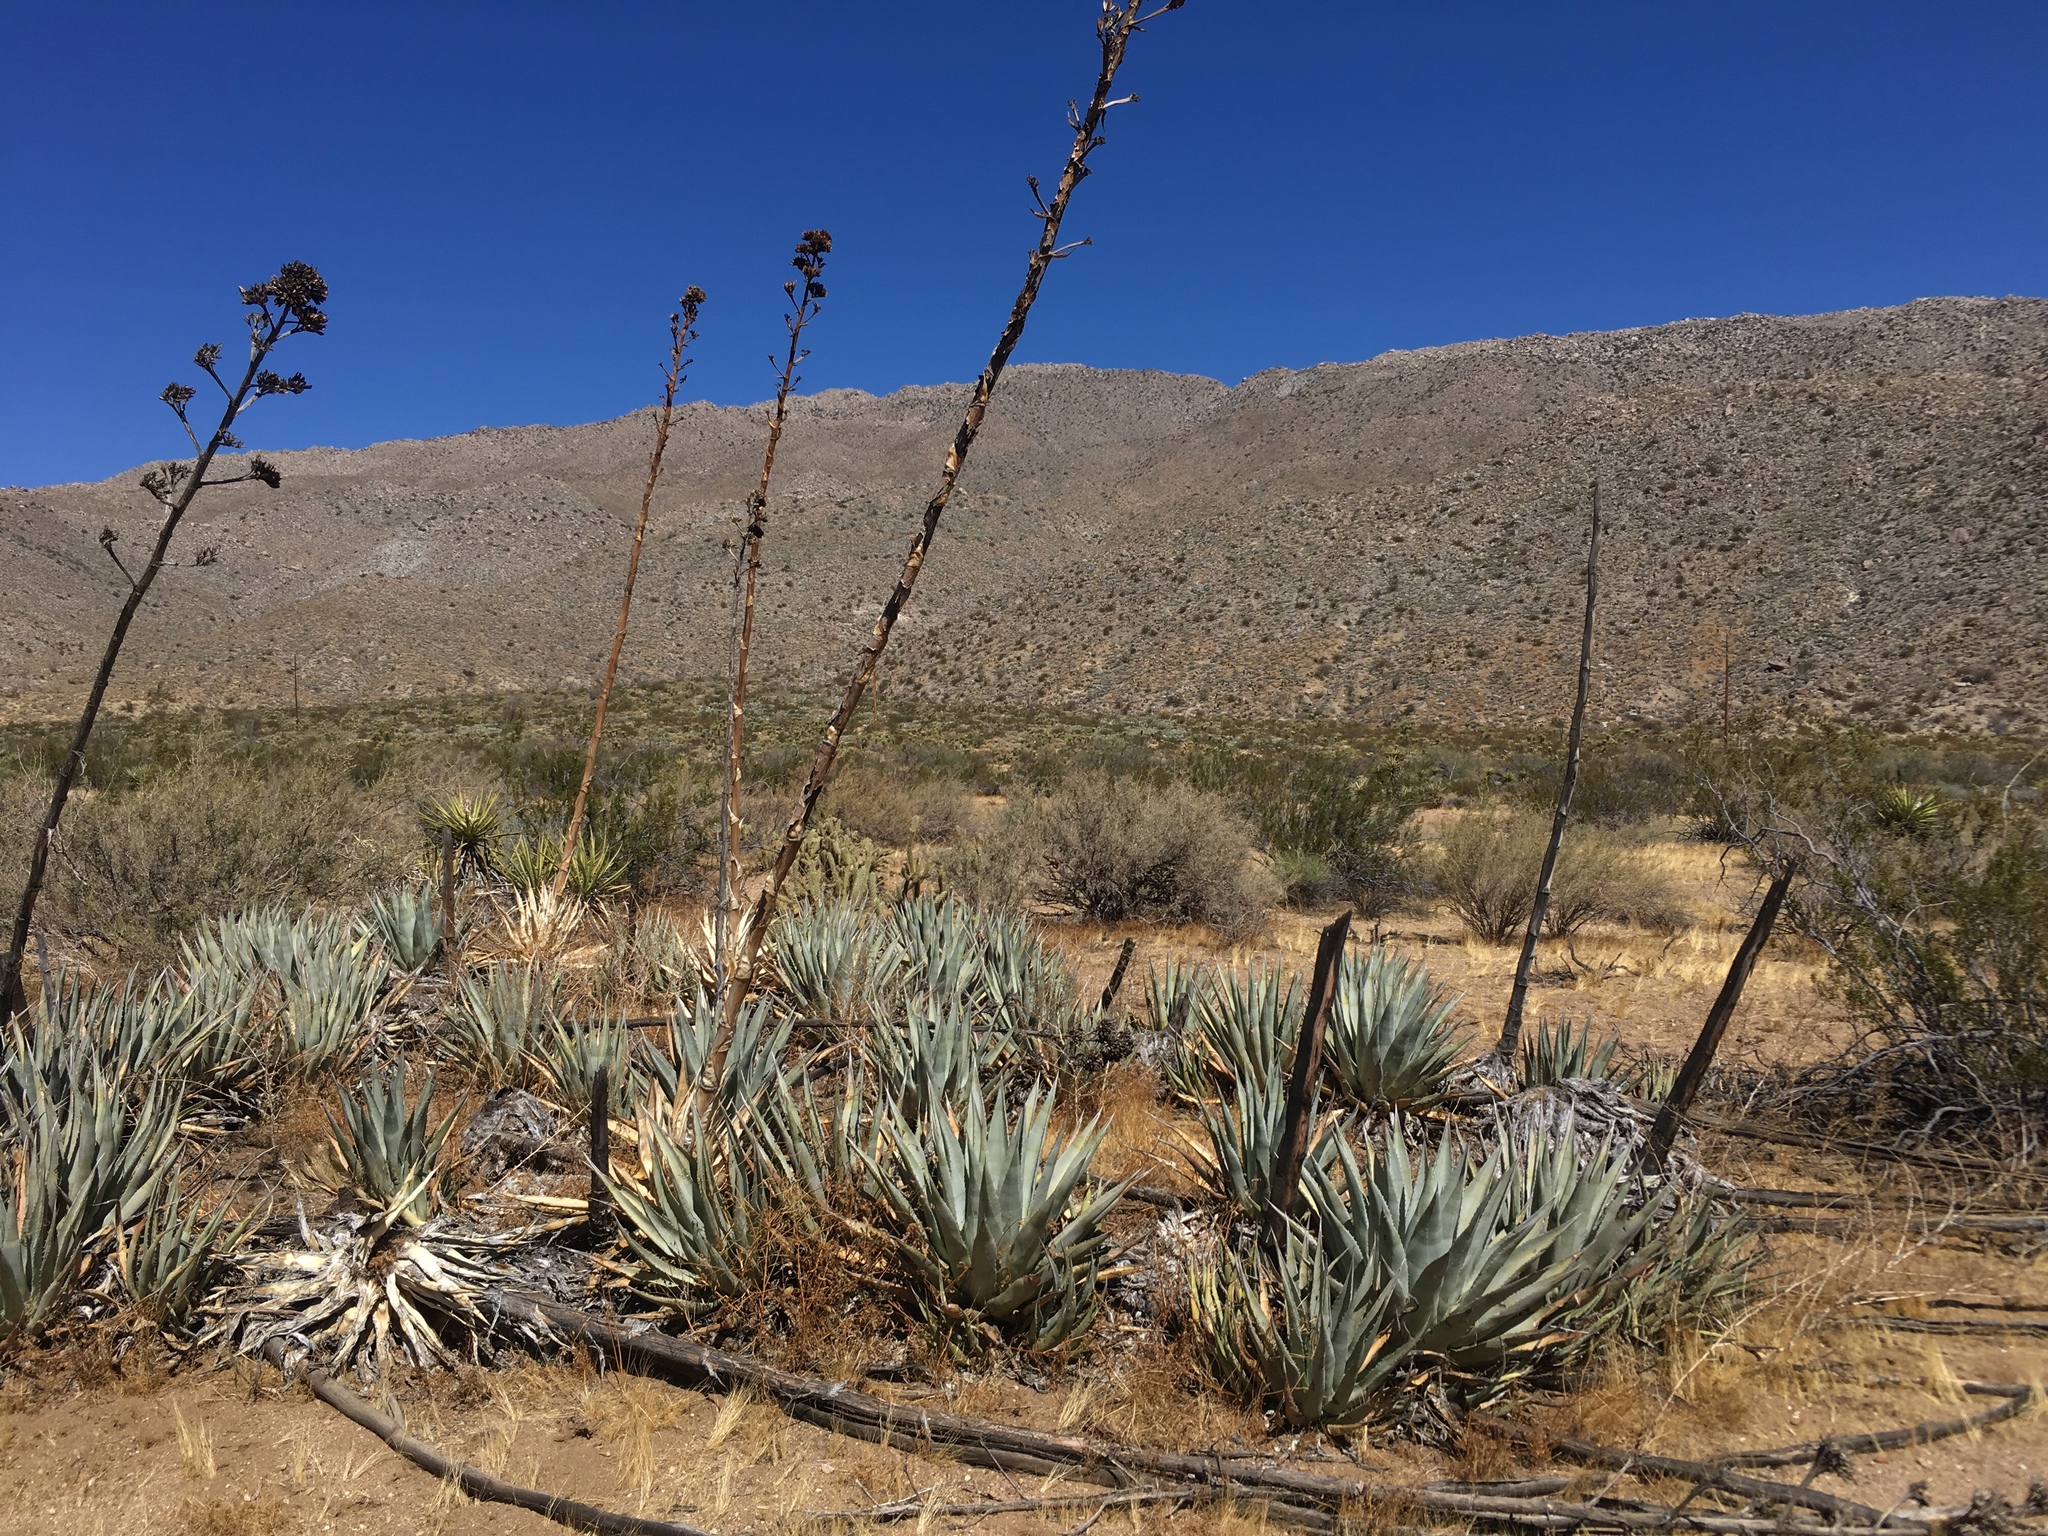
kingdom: Plantae
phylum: Tracheophyta
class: Liliopsida
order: Asparagales
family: Asparagaceae
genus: Agave
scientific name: Agave deserti
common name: Desert agave
